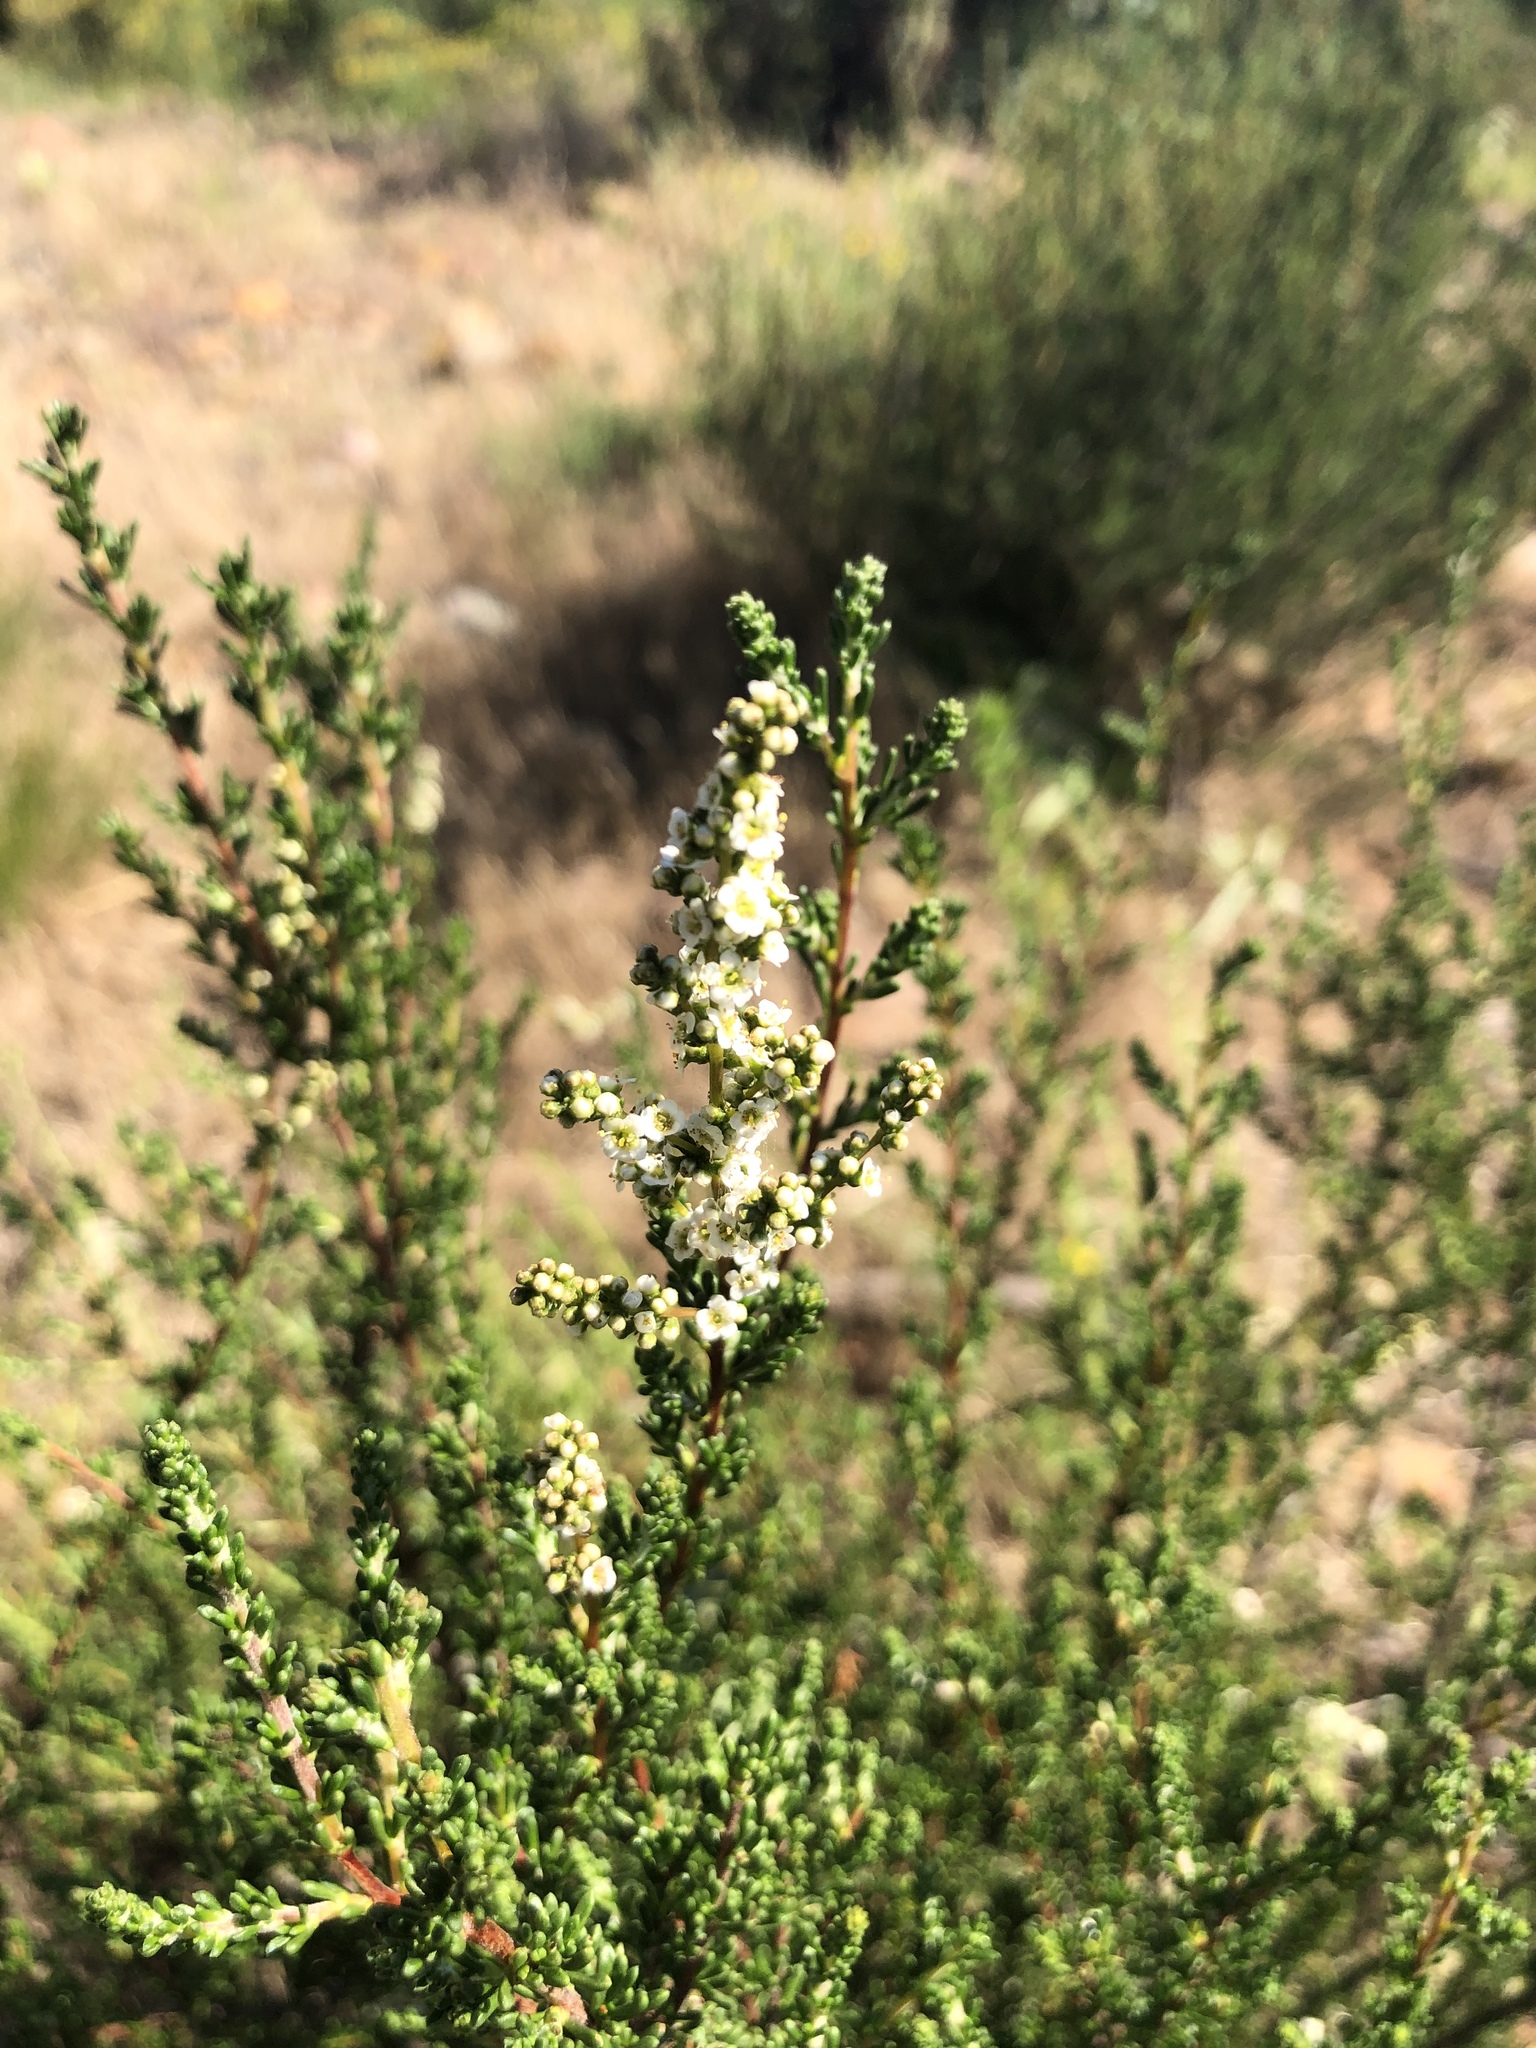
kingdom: Plantae
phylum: Tracheophyta
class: Magnoliopsida
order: Rosales
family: Rosaceae
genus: Adenostoma
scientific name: Adenostoma fasciculatum
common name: Chamise
